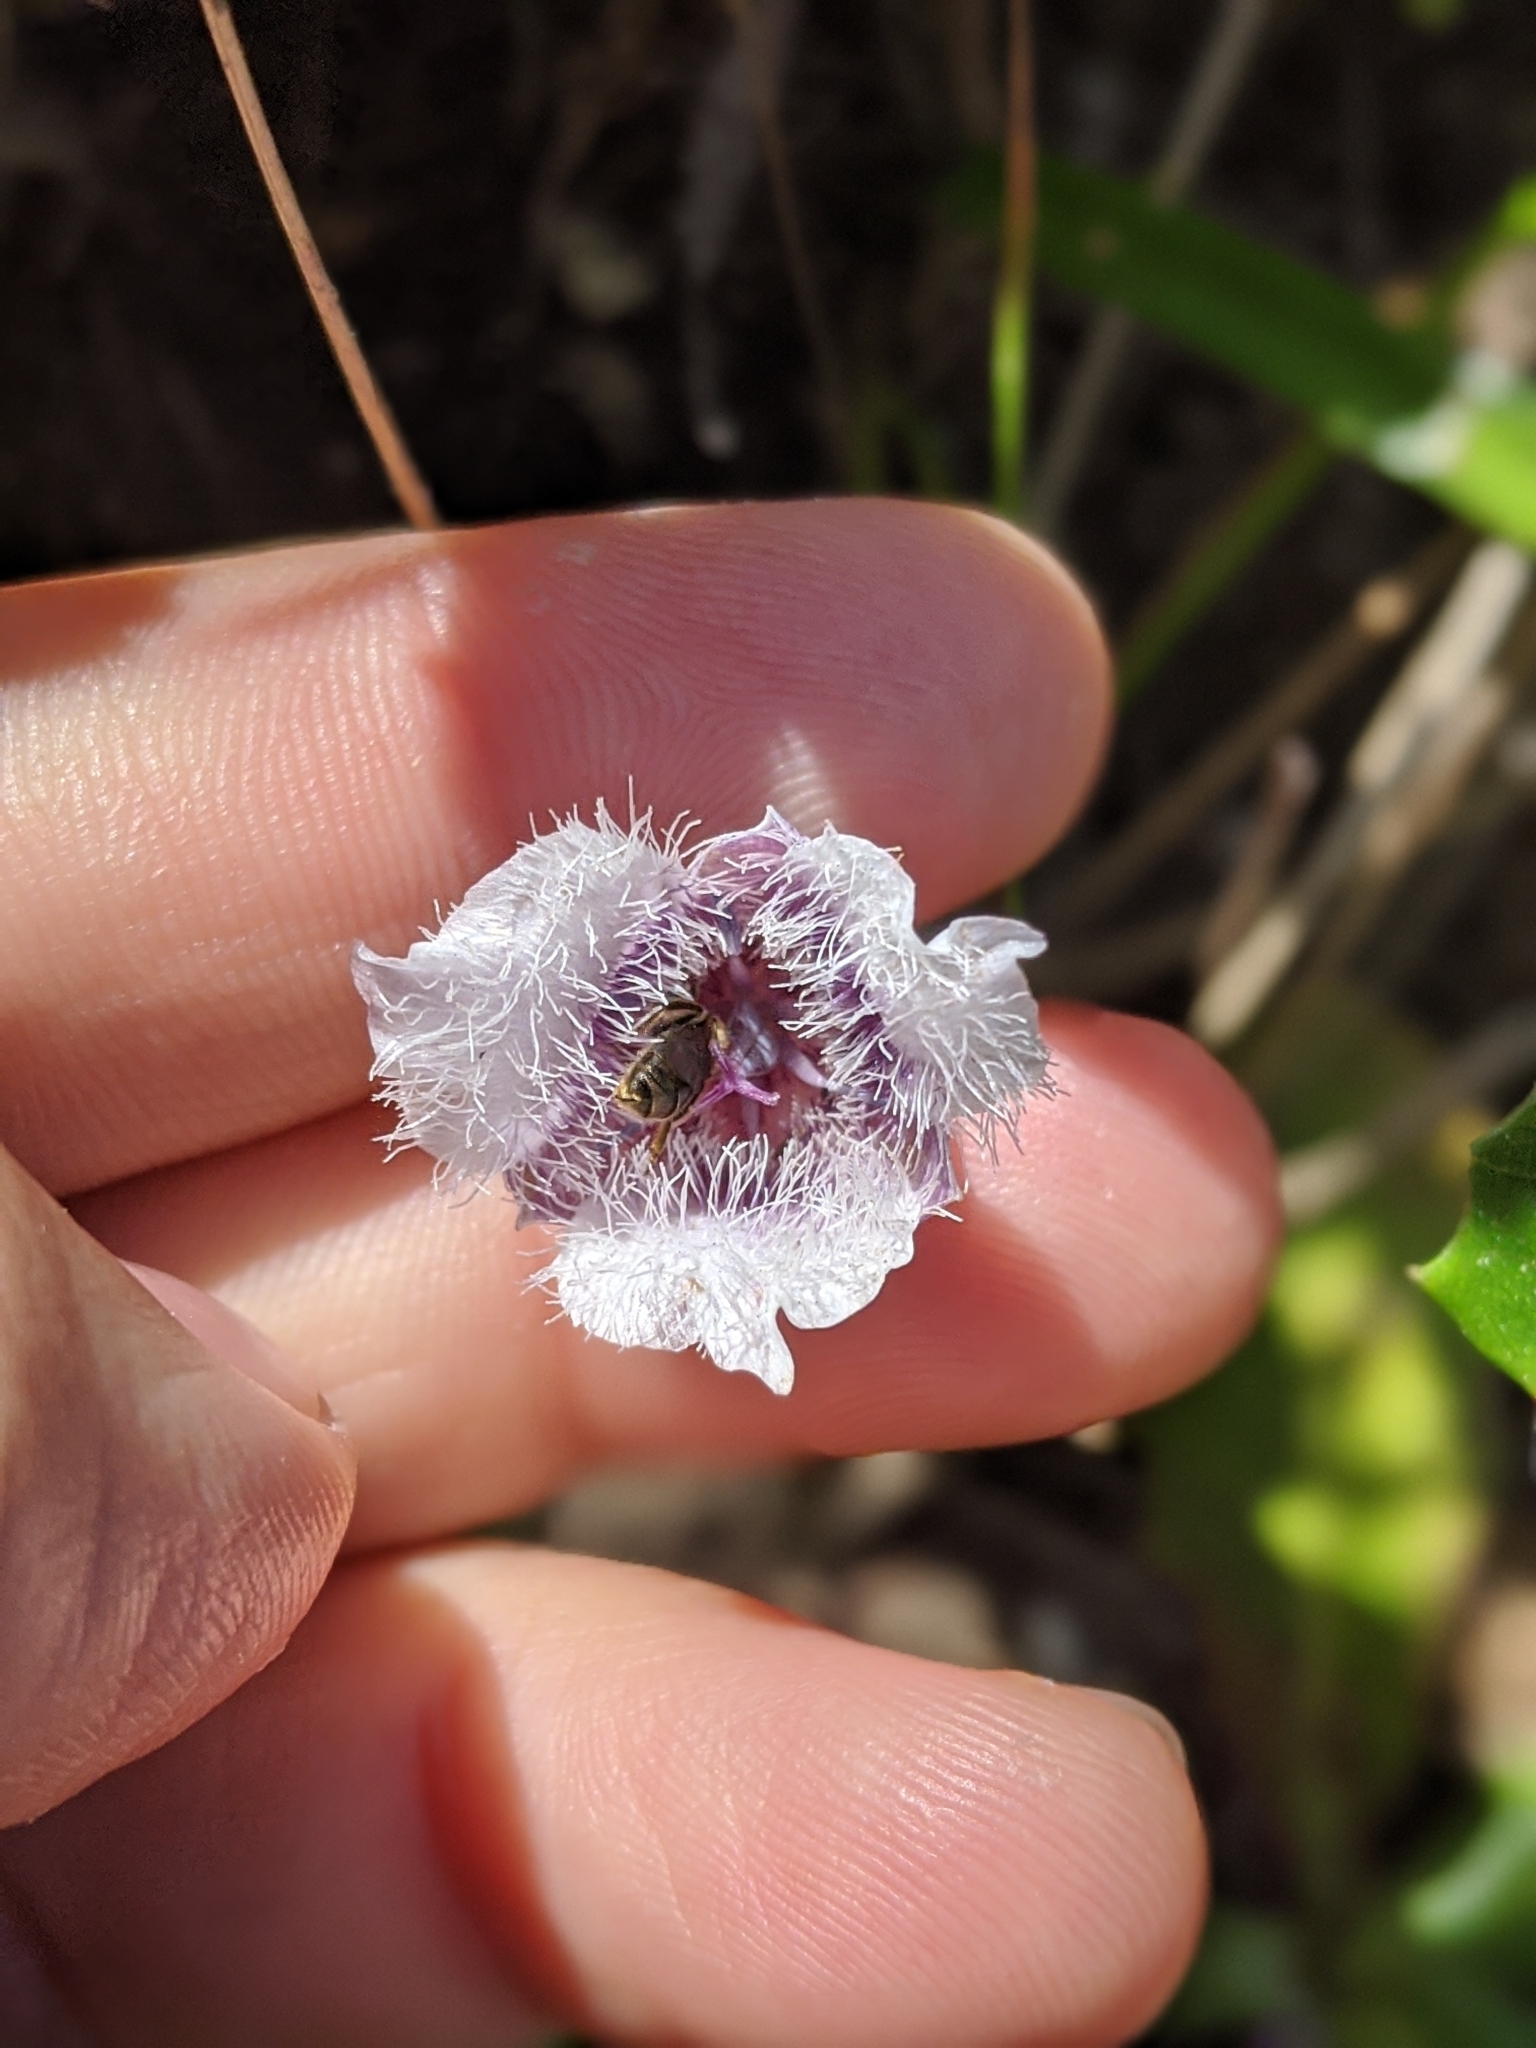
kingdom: Plantae
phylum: Tracheophyta
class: Liliopsida
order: Liliales
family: Liliaceae
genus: Calochortus
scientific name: Calochortus tolmiei
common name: Pussy-ears
